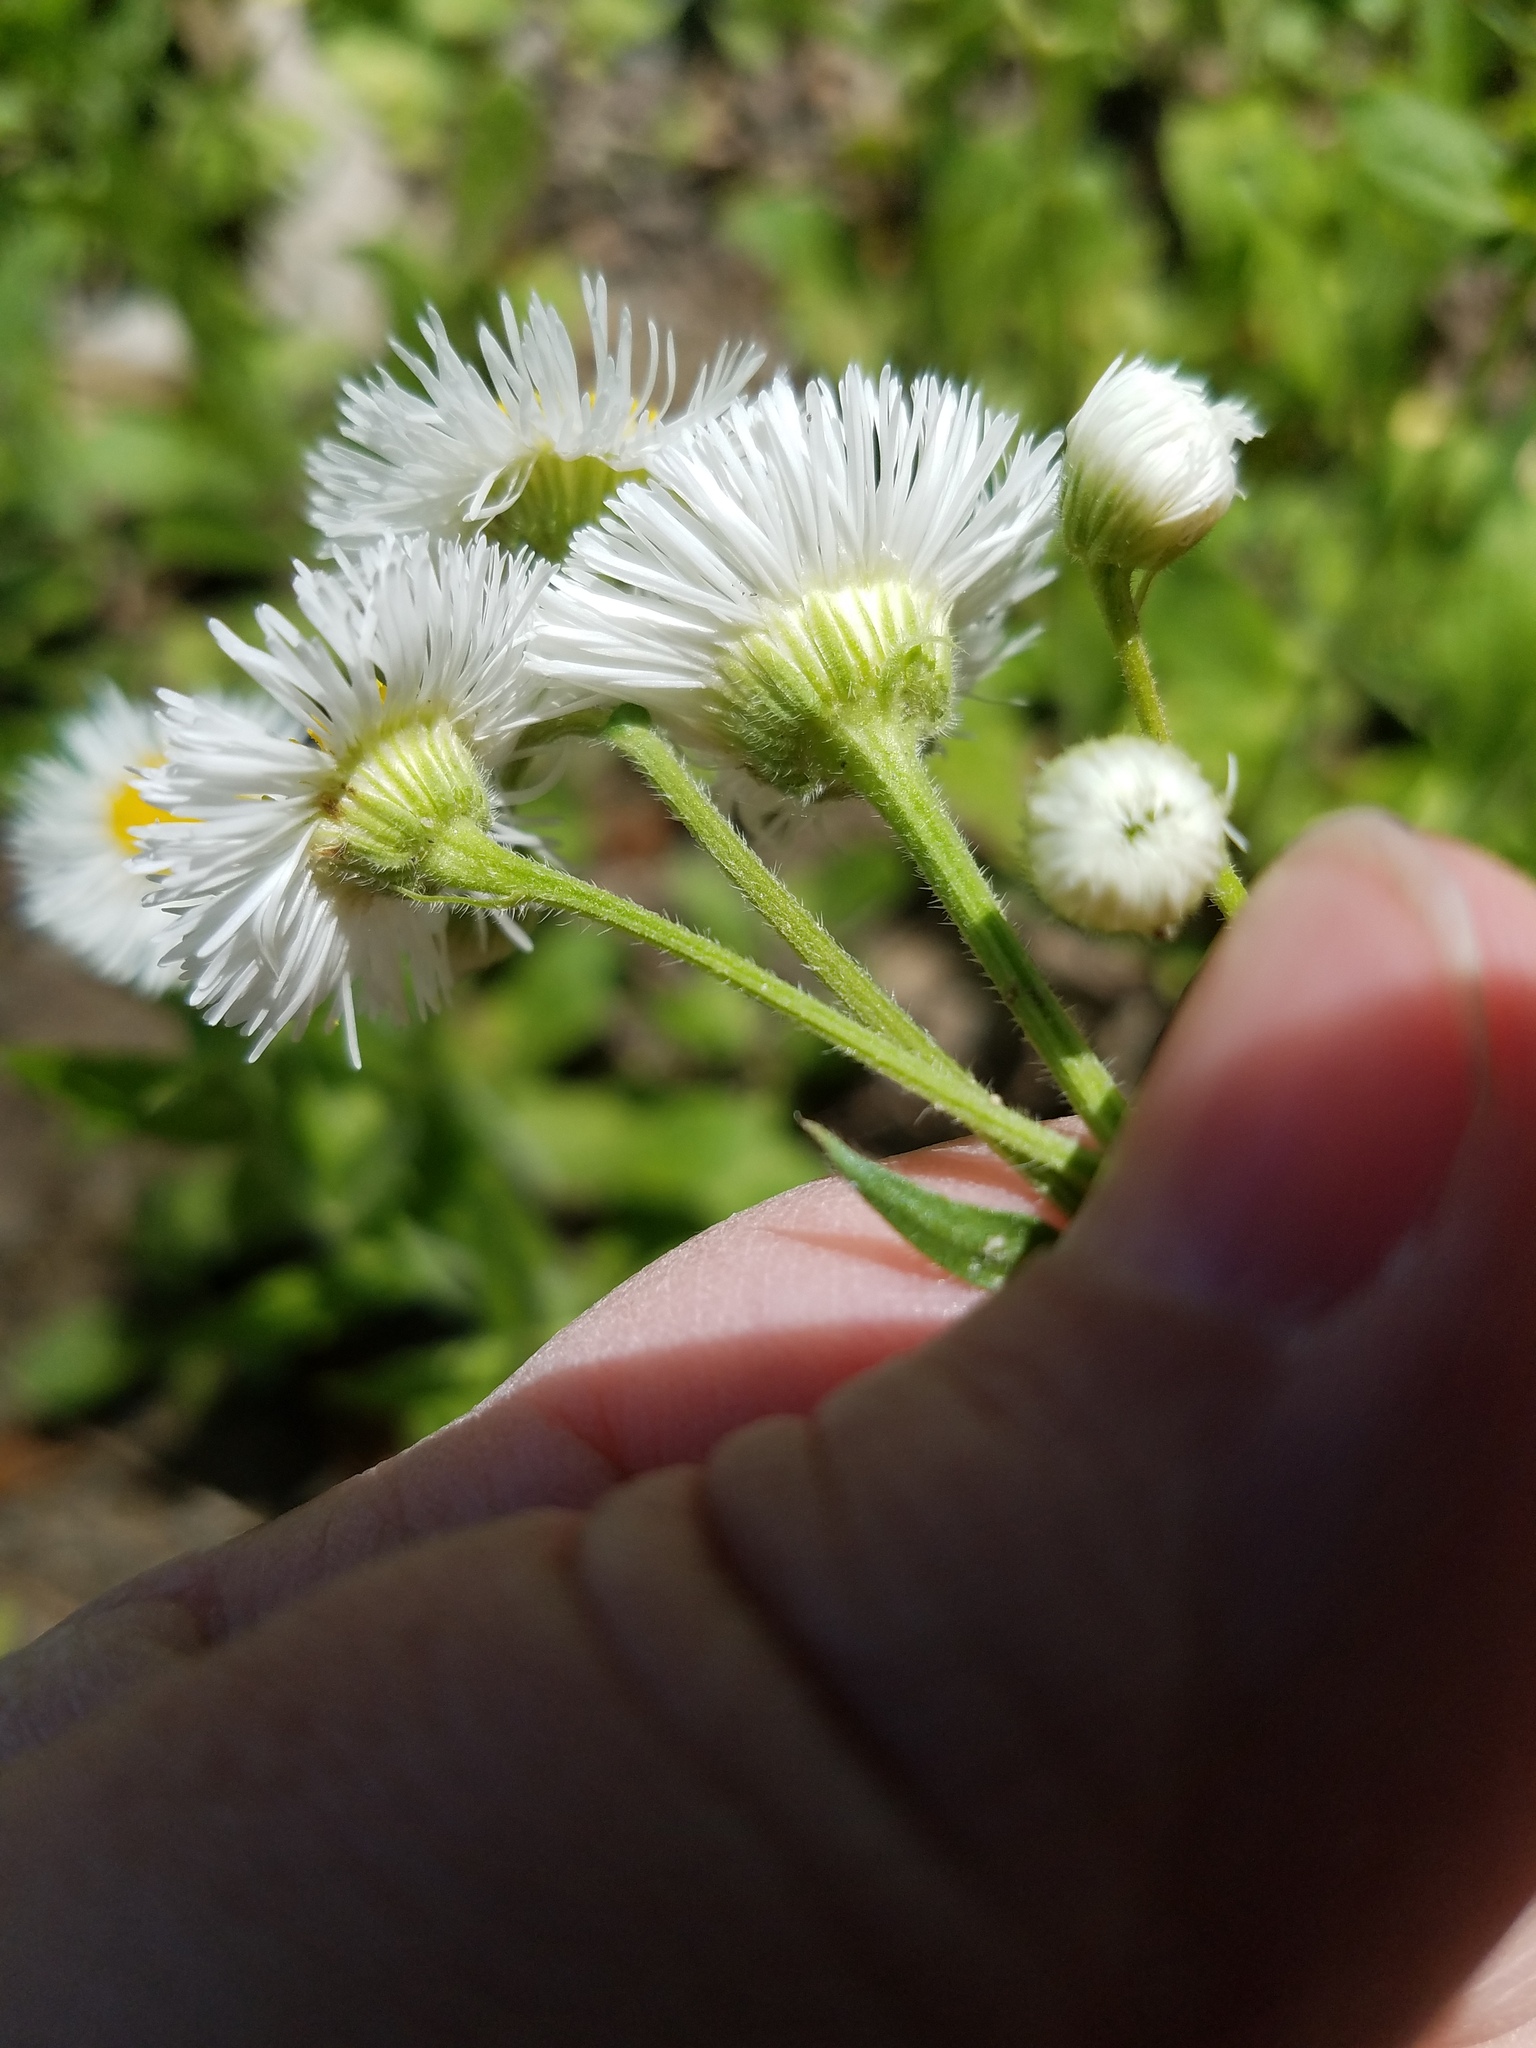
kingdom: Plantae
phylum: Tracheophyta
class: Magnoliopsida
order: Asterales
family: Asteraceae
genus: Erigeron
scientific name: Erigeron philadelphicus
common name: Robin's-plantain
